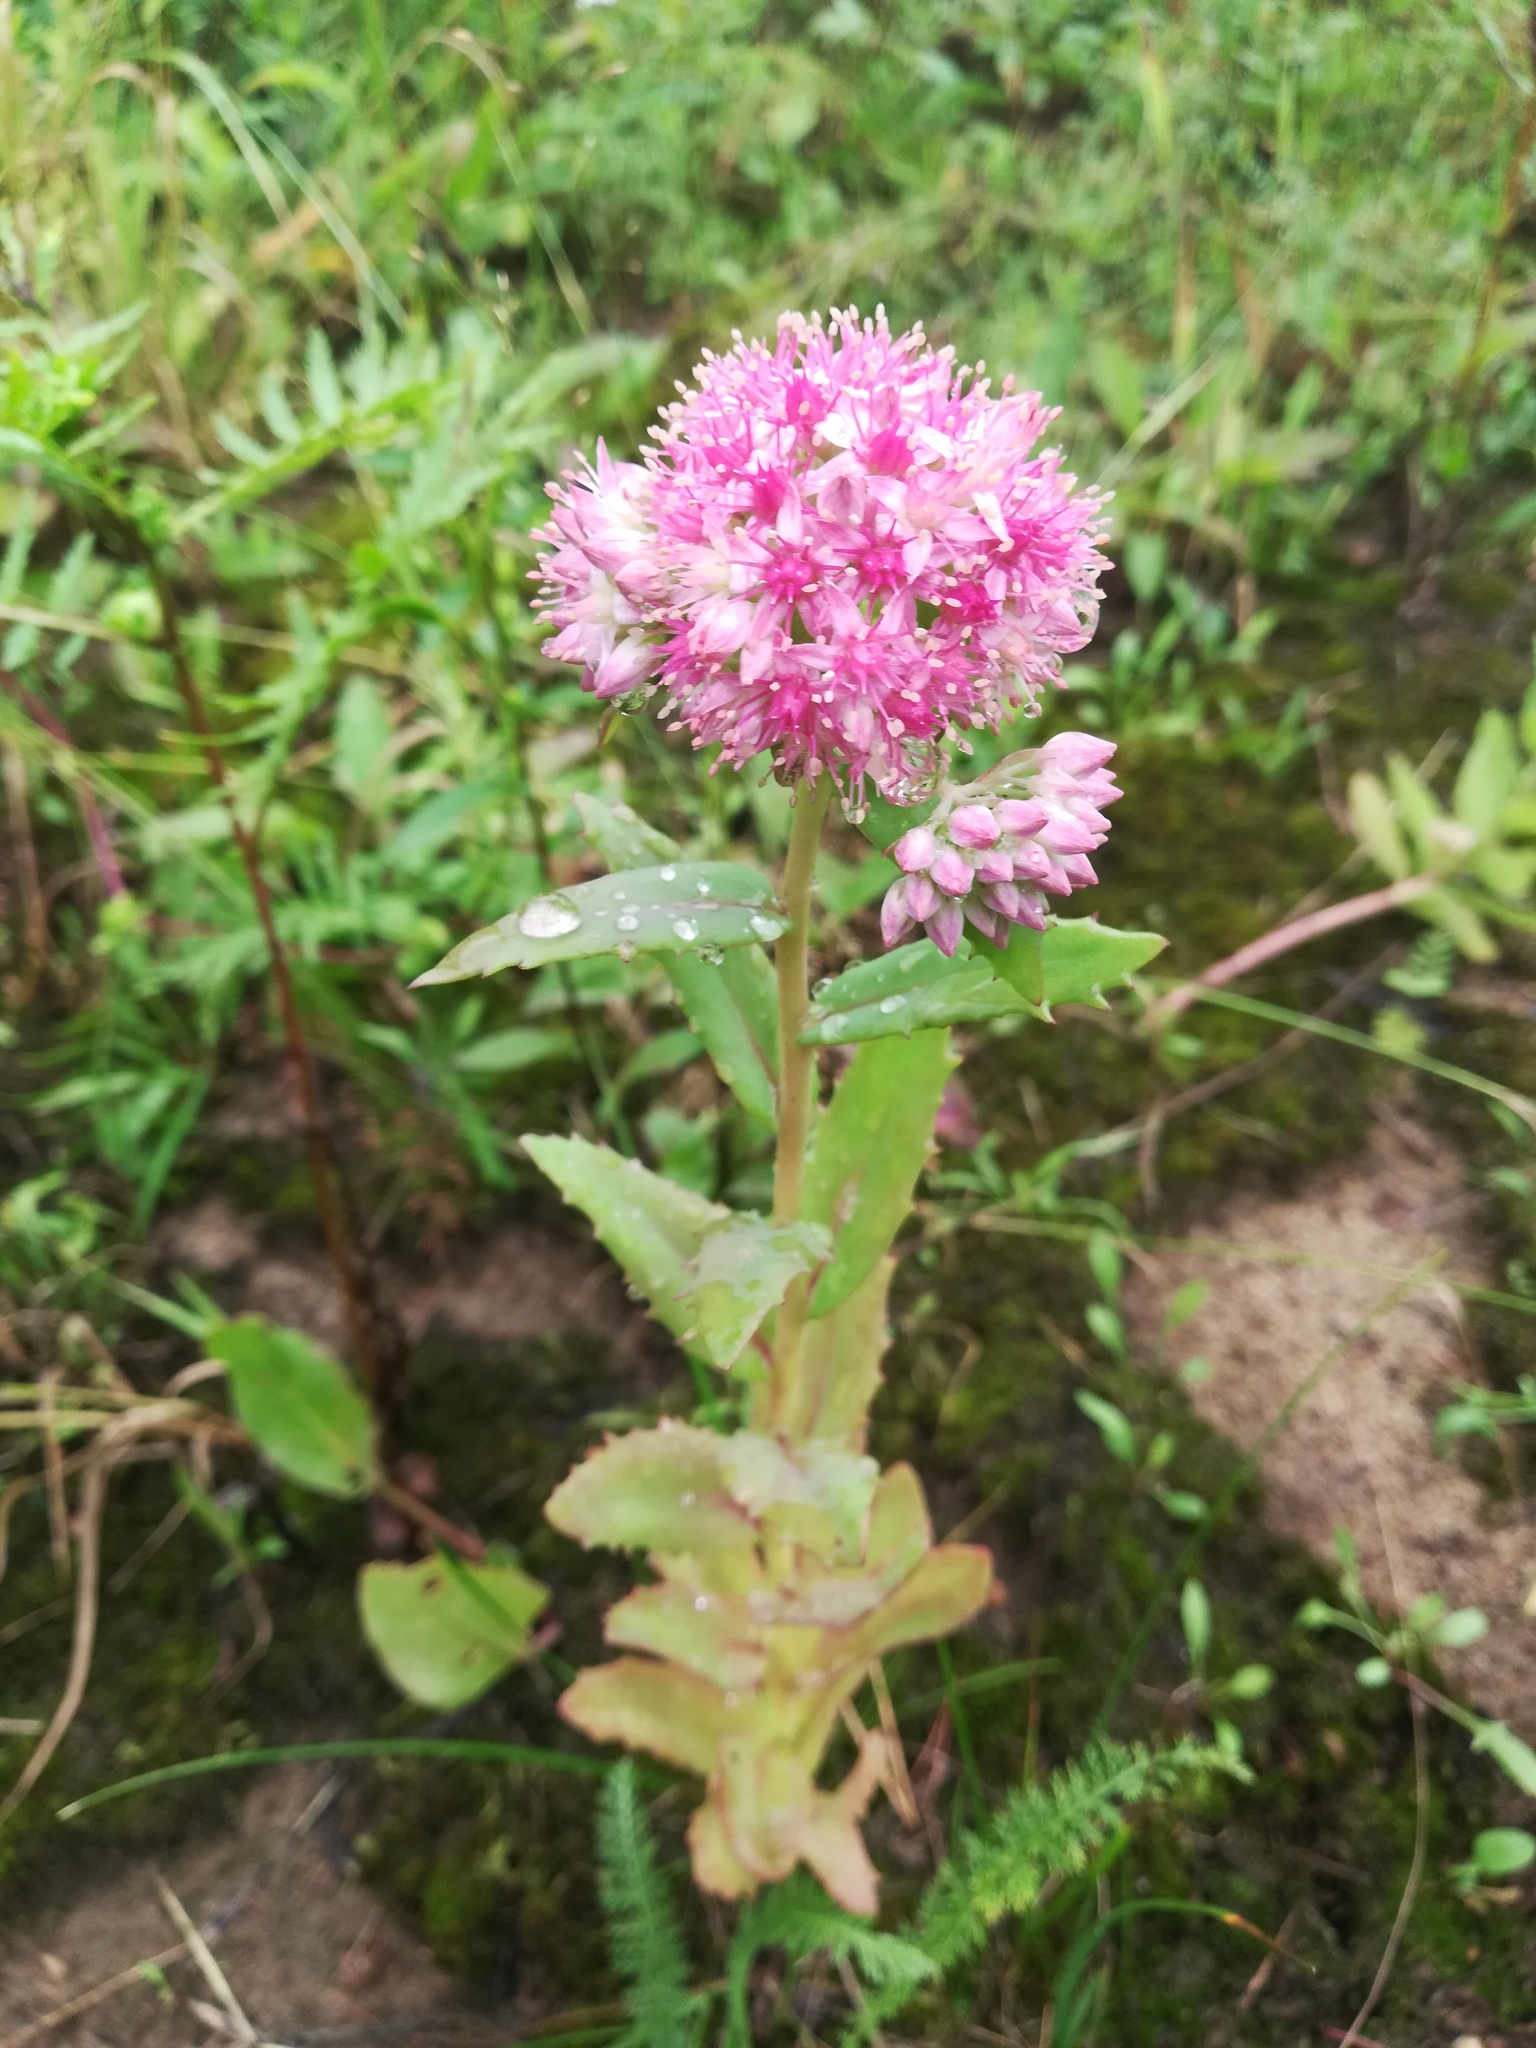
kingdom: Plantae
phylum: Tracheophyta
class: Magnoliopsida
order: Saxifragales
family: Crassulaceae
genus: Hylotelephium
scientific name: Hylotelephium telephium
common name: Live-forever
